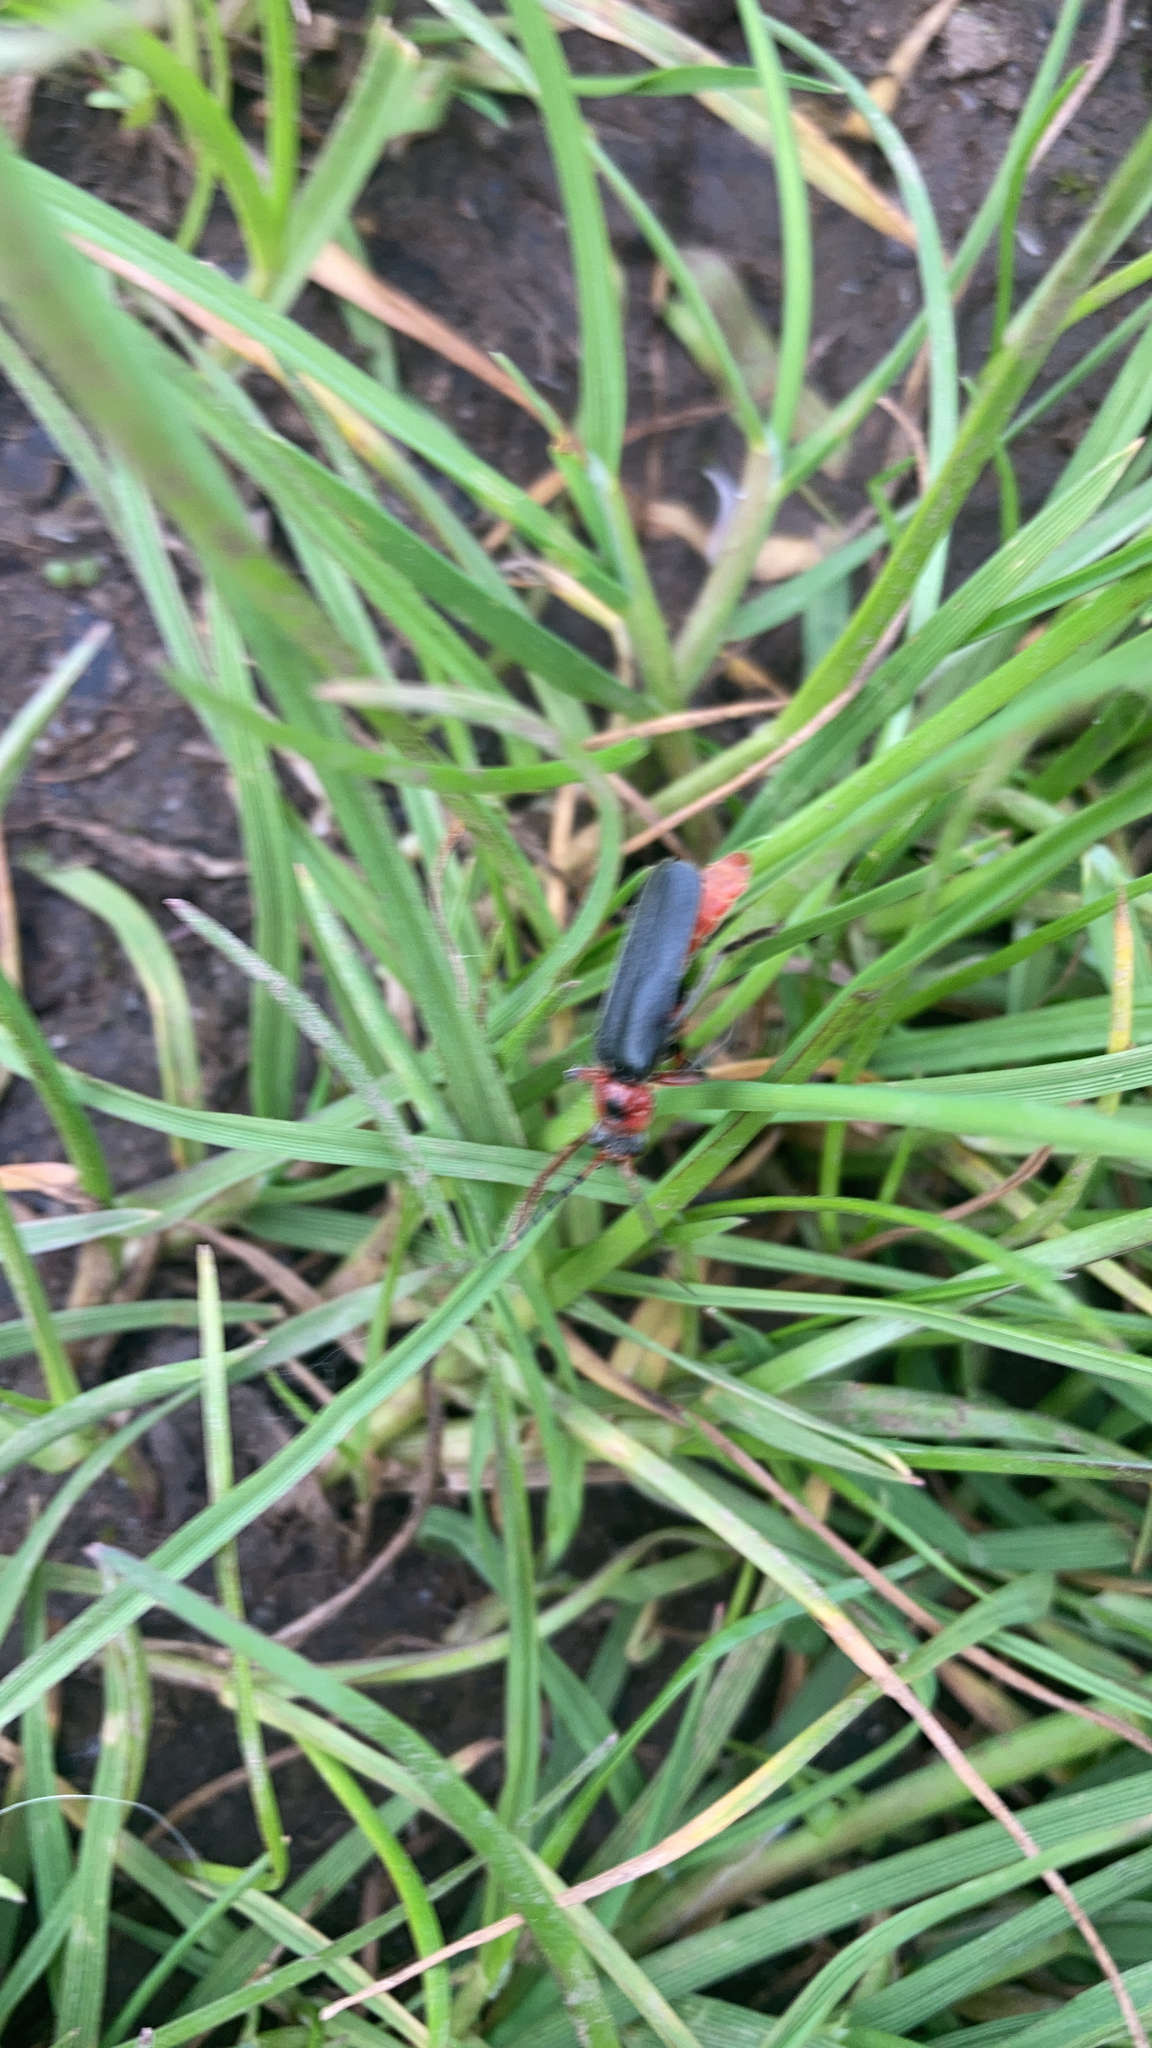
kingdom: Animalia
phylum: Arthropoda
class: Insecta
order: Coleoptera
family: Cantharidae
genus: Cantharis
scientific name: Cantharis rustica
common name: Soldier beetle
